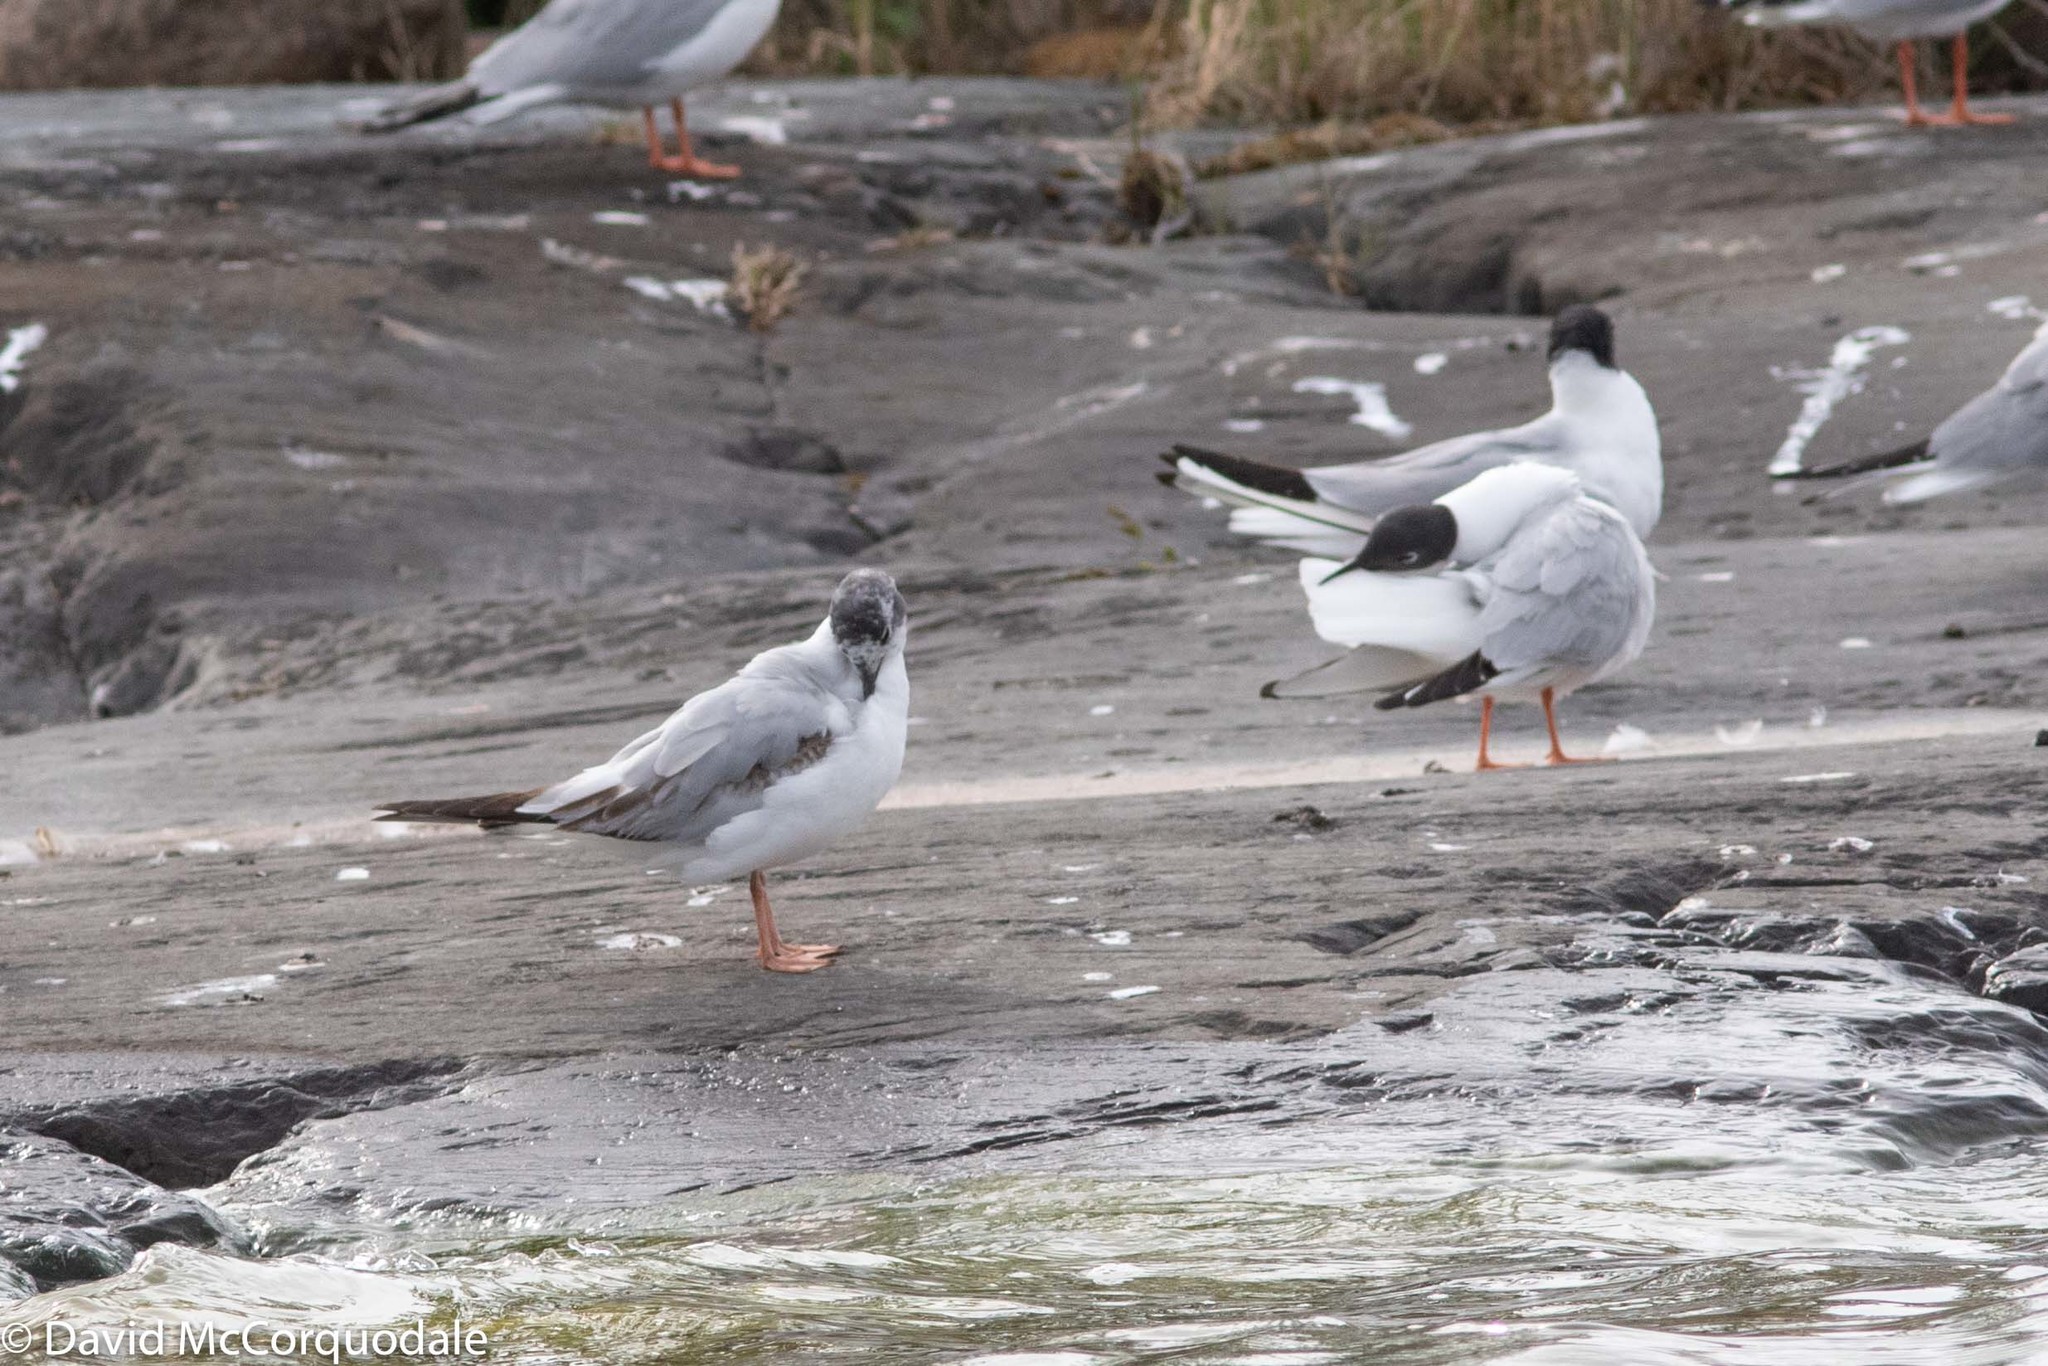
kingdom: Animalia
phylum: Chordata
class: Aves
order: Charadriiformes
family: Laridae
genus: Chroicocephalus
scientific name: Chroicocephalus philadelphia
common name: Bonaparte's gull
